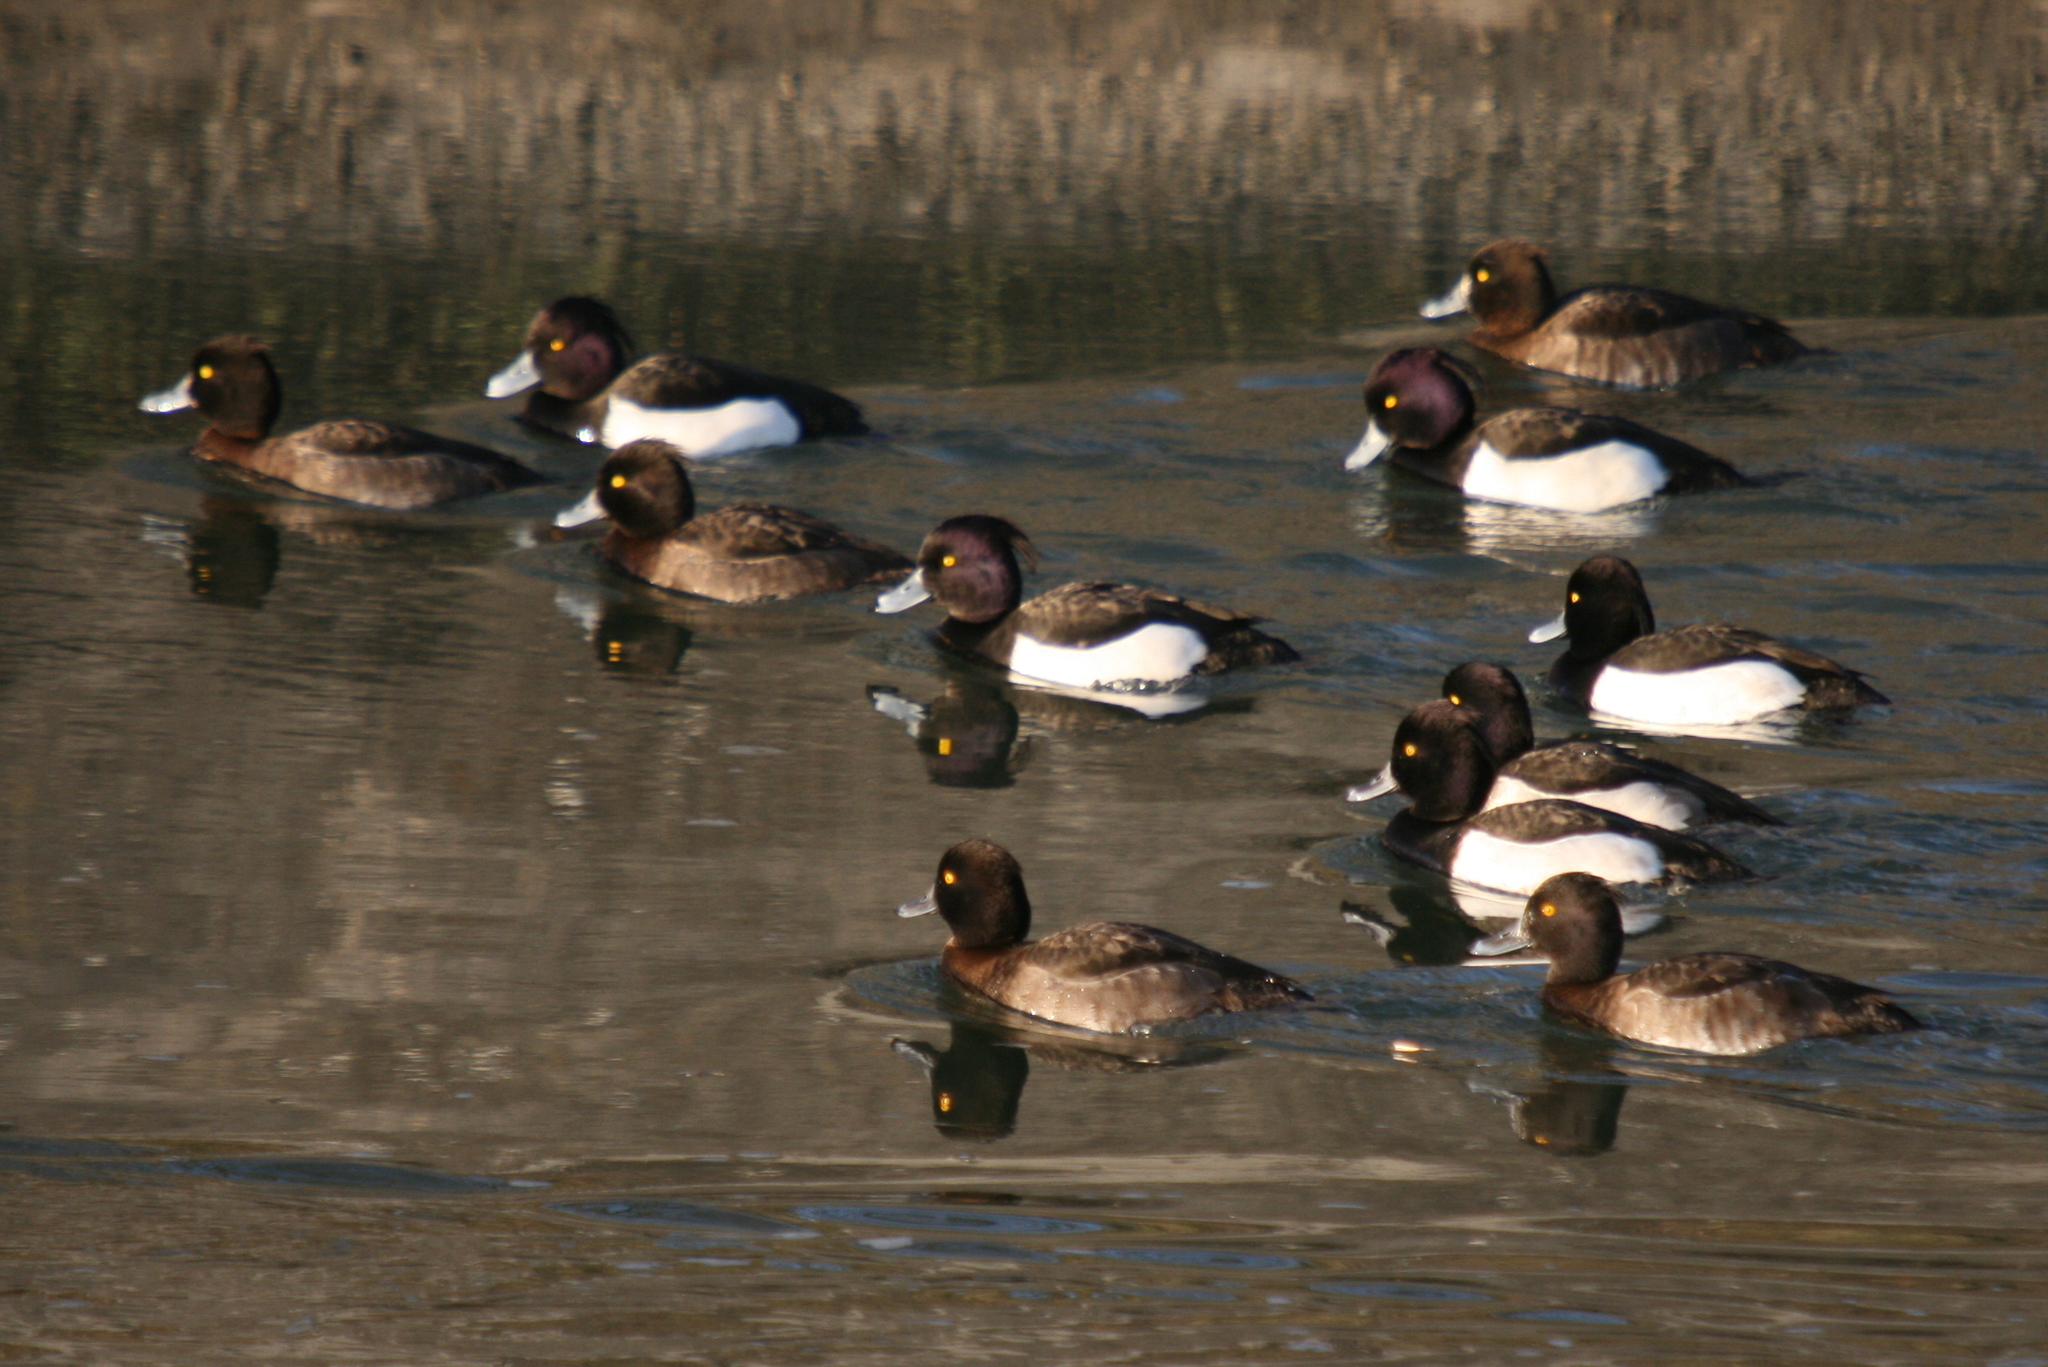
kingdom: Animalia
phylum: Chordata
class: Aves
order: Anseriformes
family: Anatidae
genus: Aythya
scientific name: Aythya fuligula
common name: Tufted duck
